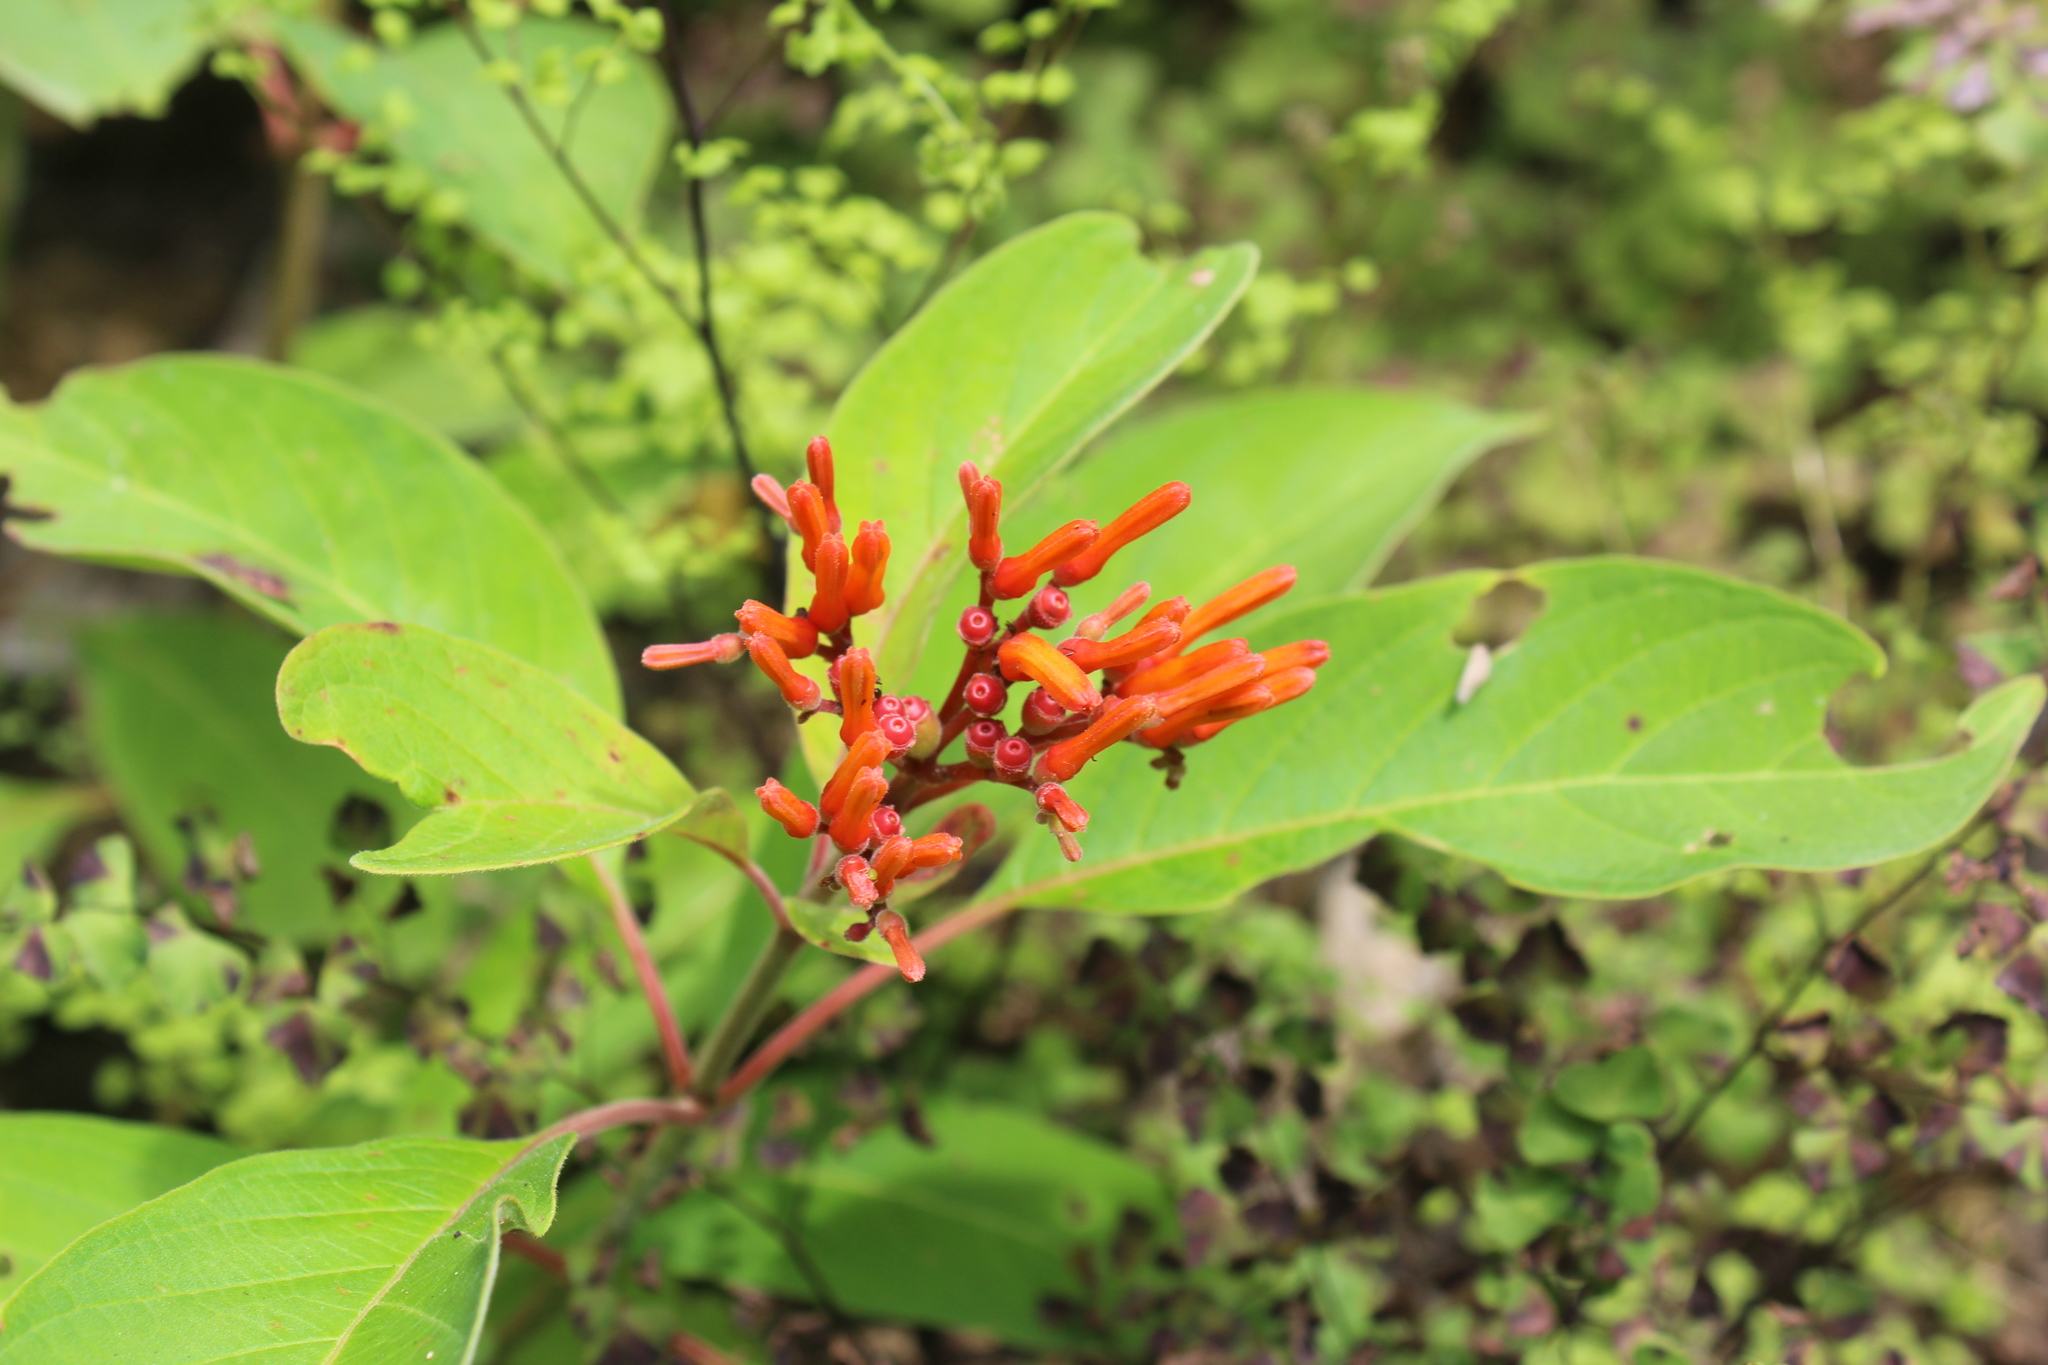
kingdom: Plantae
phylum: Tracheophyta
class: Magnoliopsida
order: Gentianales
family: Rubiaceae
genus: Hamelia
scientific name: Hamelia patens
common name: Redhead
